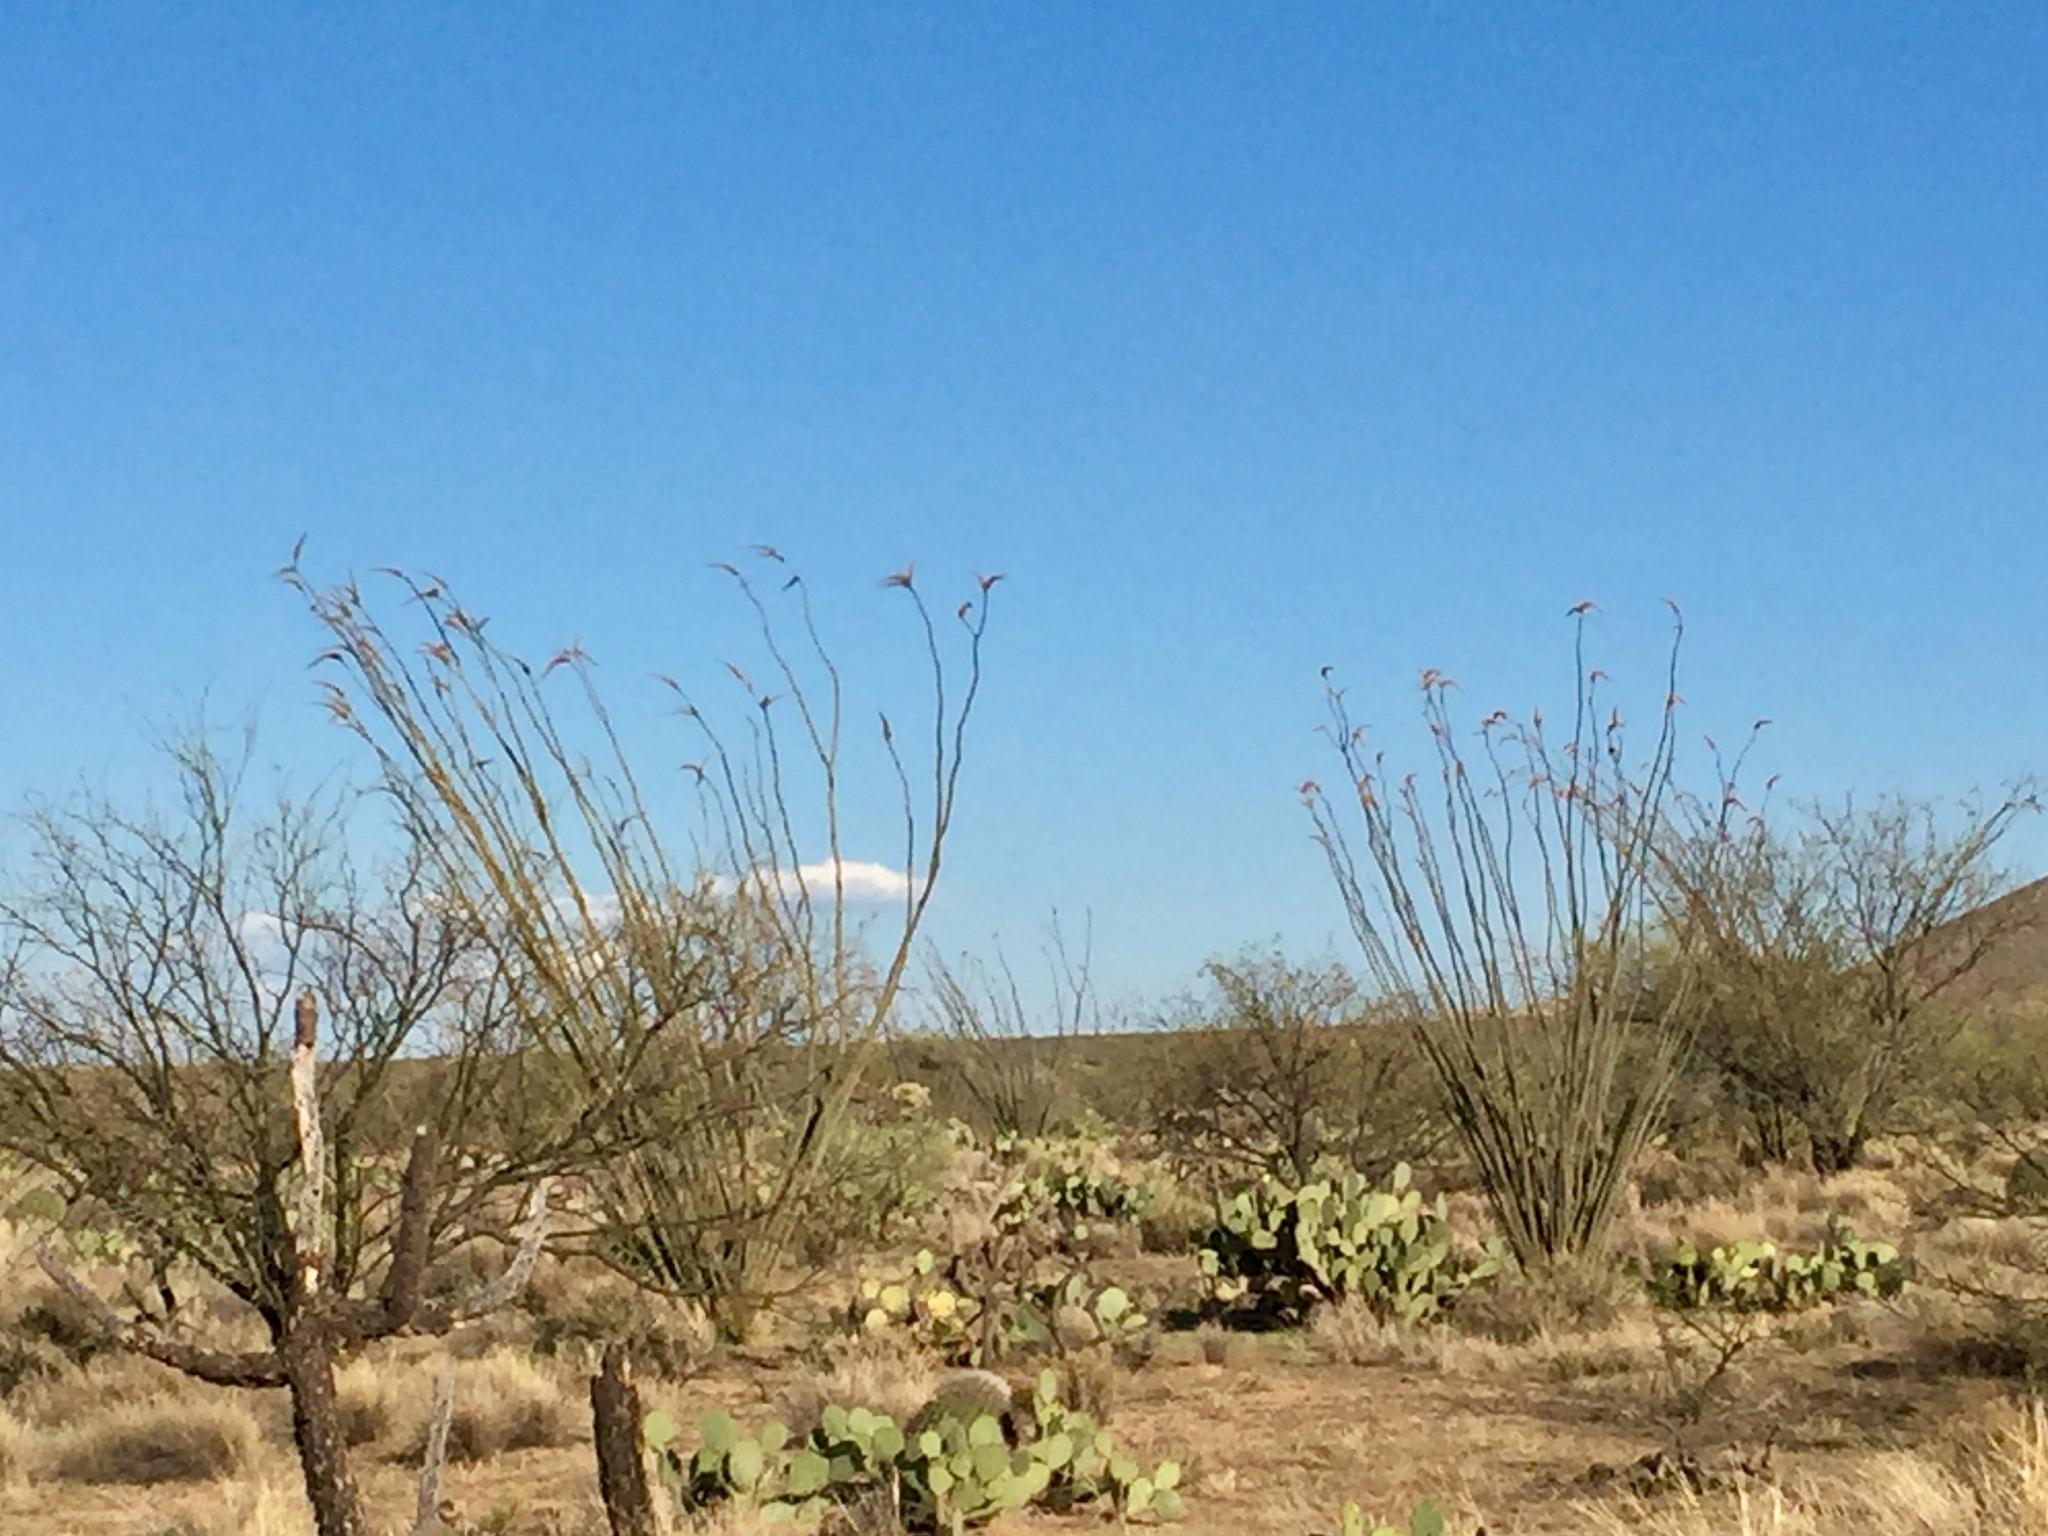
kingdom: Plantae
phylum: Tracheophyta
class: Magnoliopsida
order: Ericales
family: Fouquieriaceae
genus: Fouquieria
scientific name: Fouquieria splendens
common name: Vine-cactus
